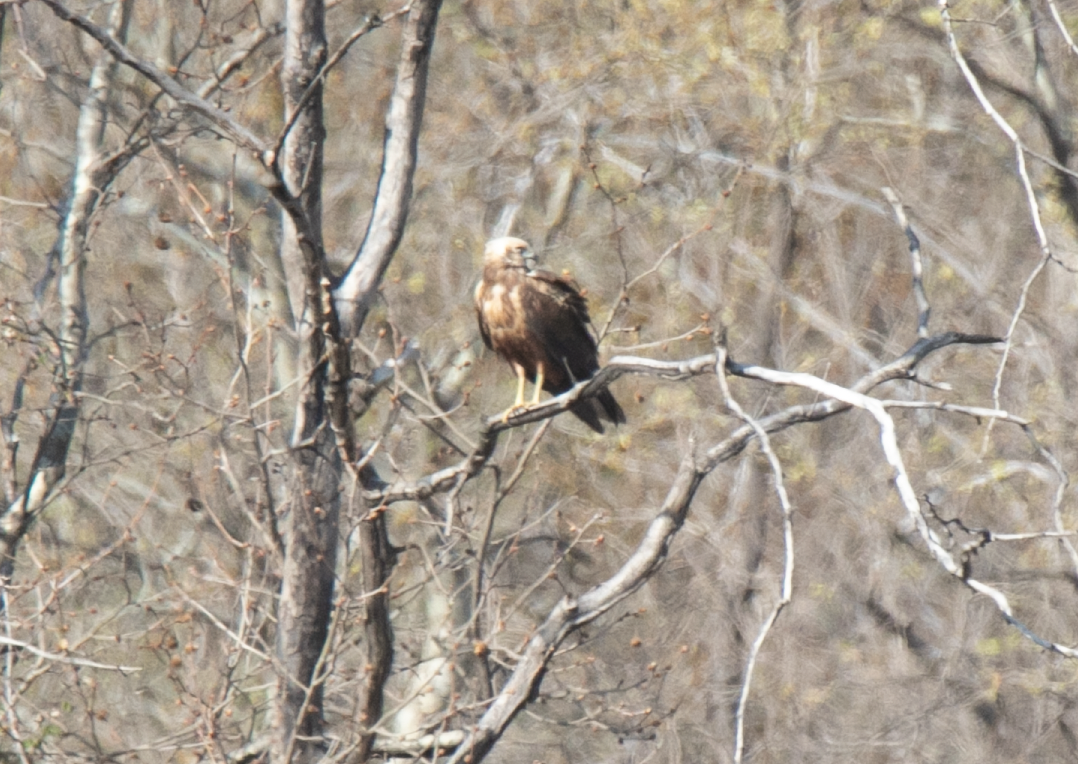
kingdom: Animalia
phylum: Chordata
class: Aves
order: Accipitriformes
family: Accipitridae
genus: Circus
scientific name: Circus aeruginosus
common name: Western marsh harrier
